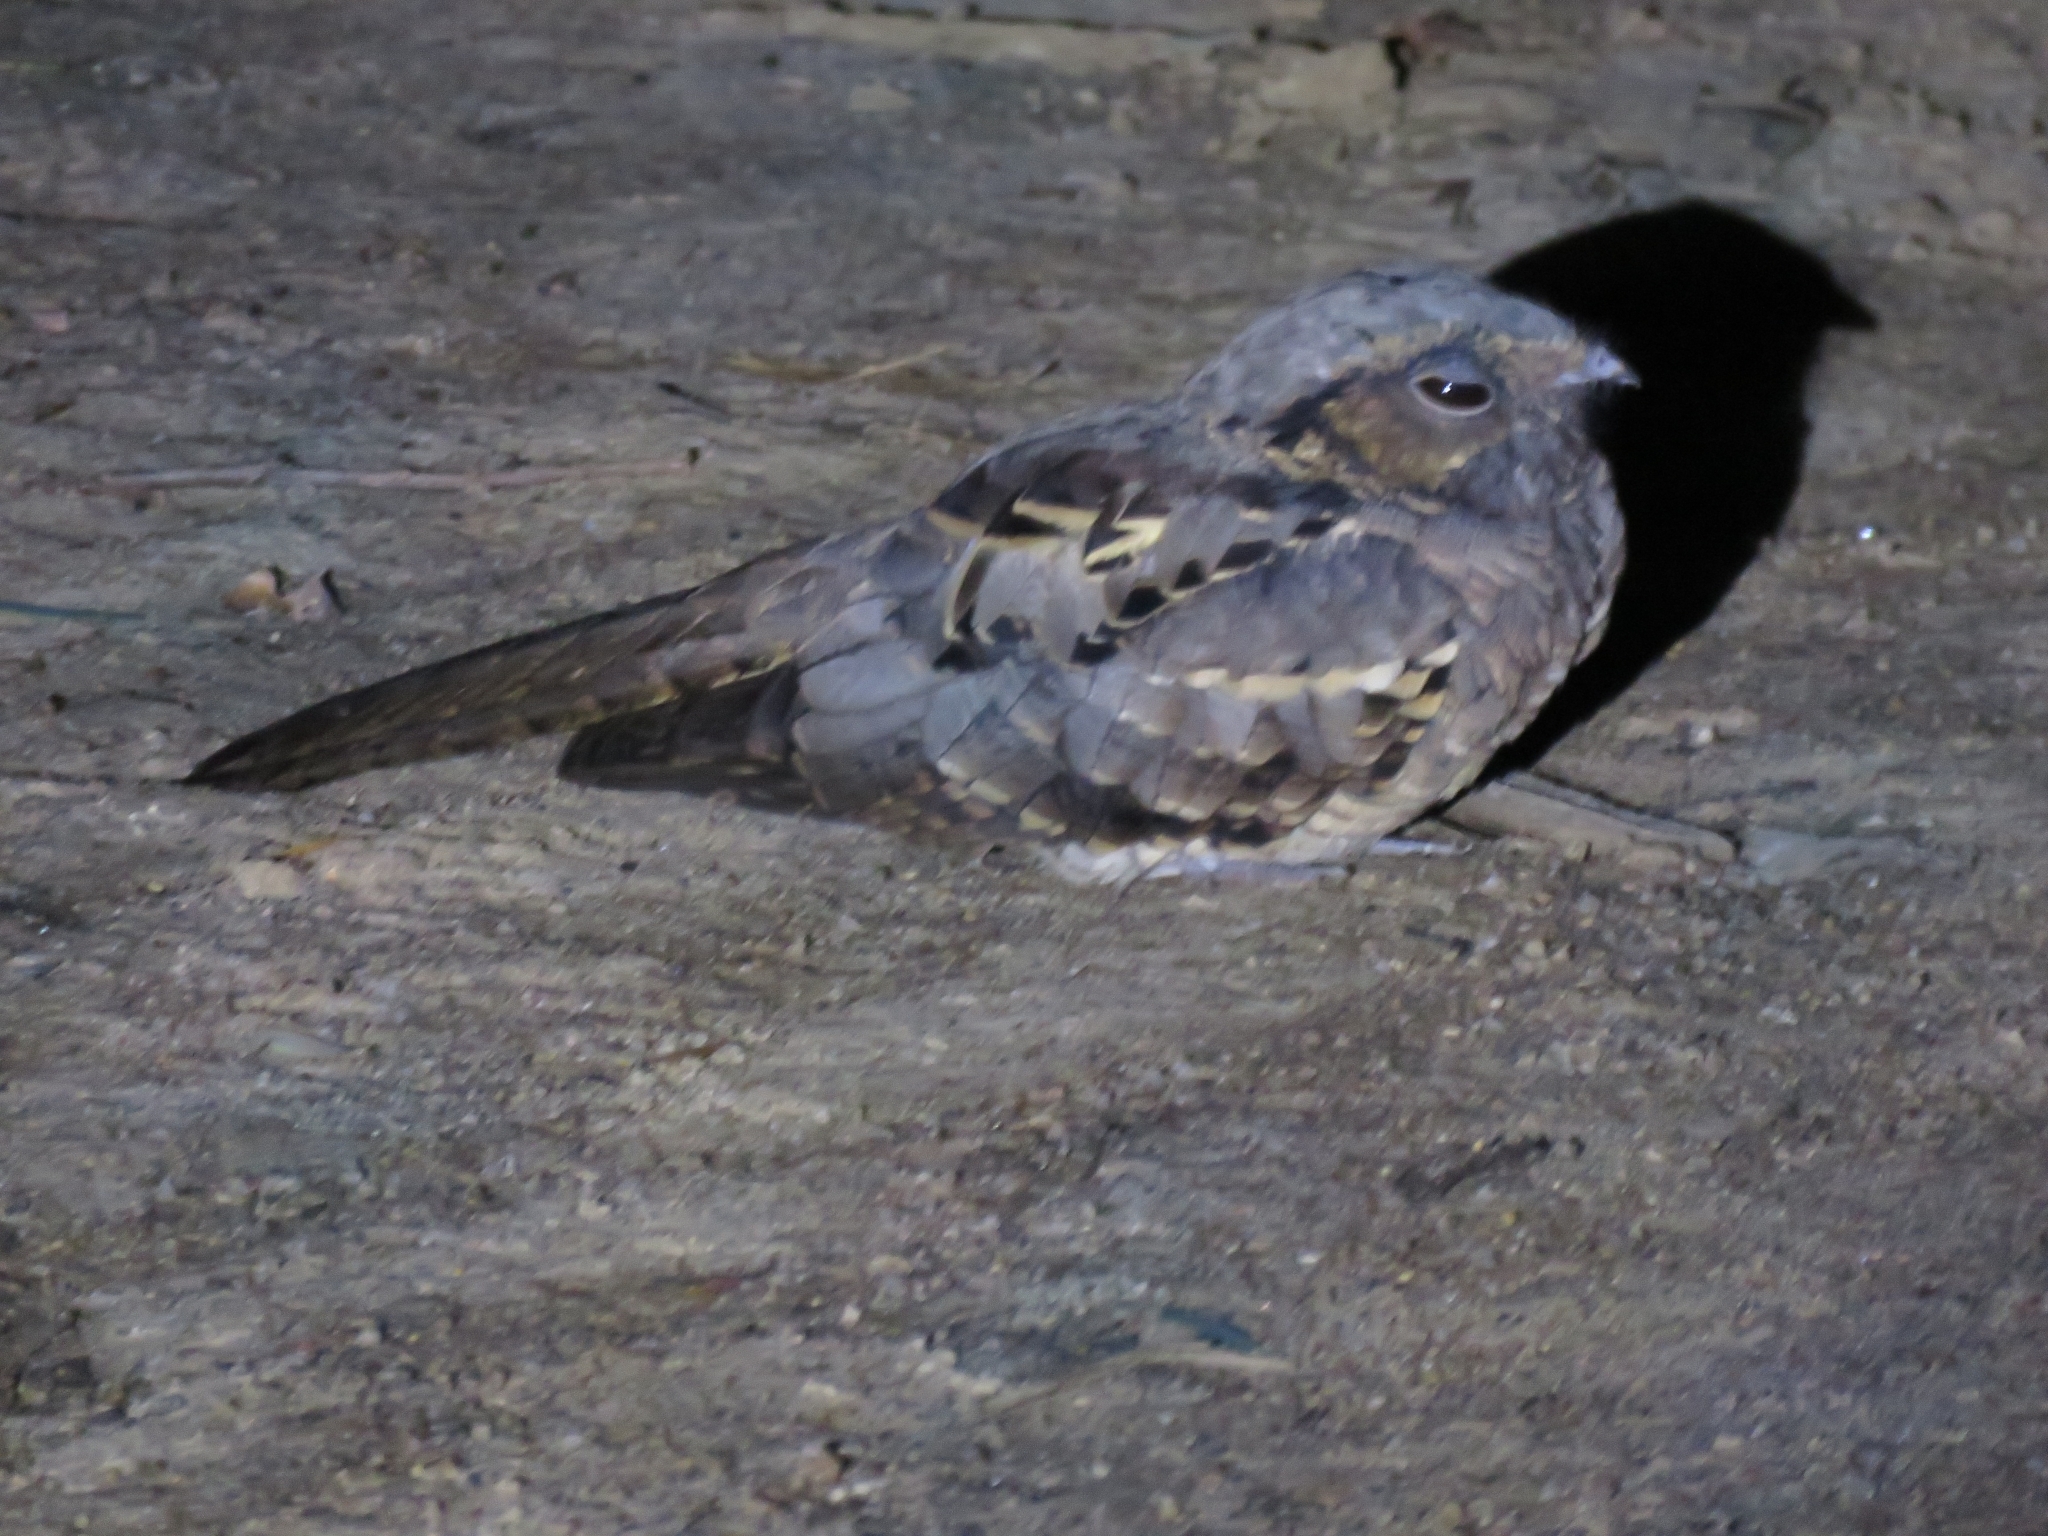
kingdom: Animalia
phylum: Chordata
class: Aves
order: Caprimulgiformes
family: Caprimulgidae
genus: Nyctidromus
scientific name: Nyctidromus albicollis
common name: Pauraque
